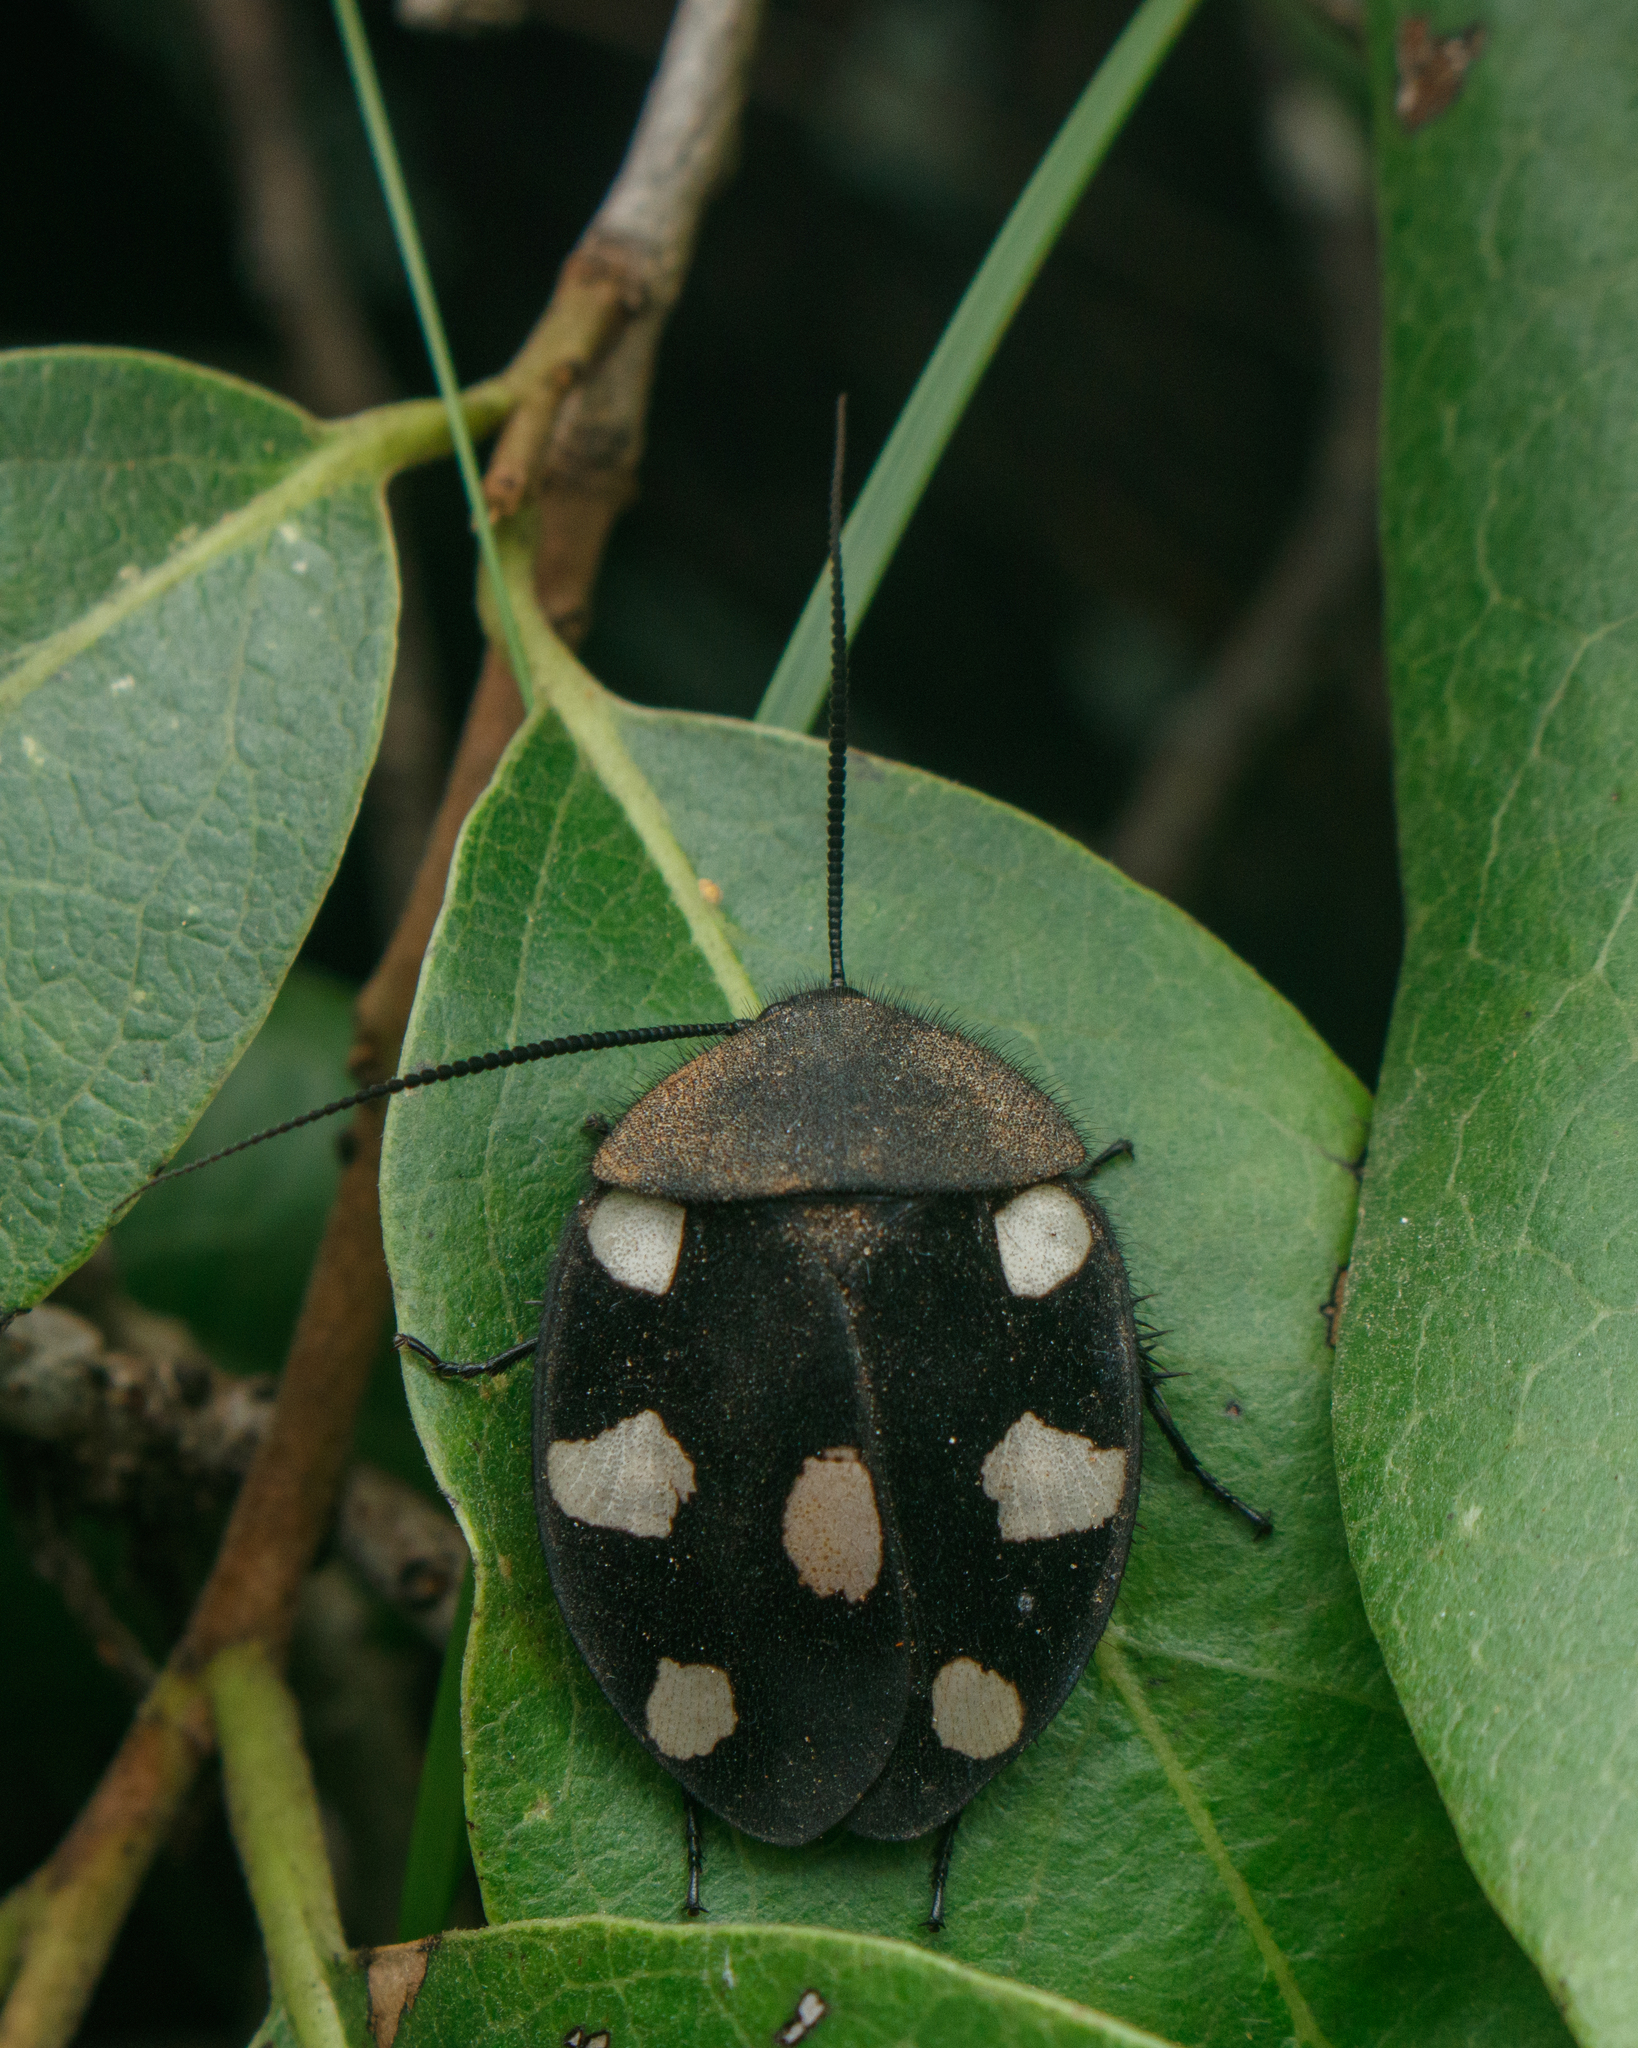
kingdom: Animalia
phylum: Arthropoda
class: Insecta
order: Blattodea
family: Corydiidae
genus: Therea
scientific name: Therea petiveriana
